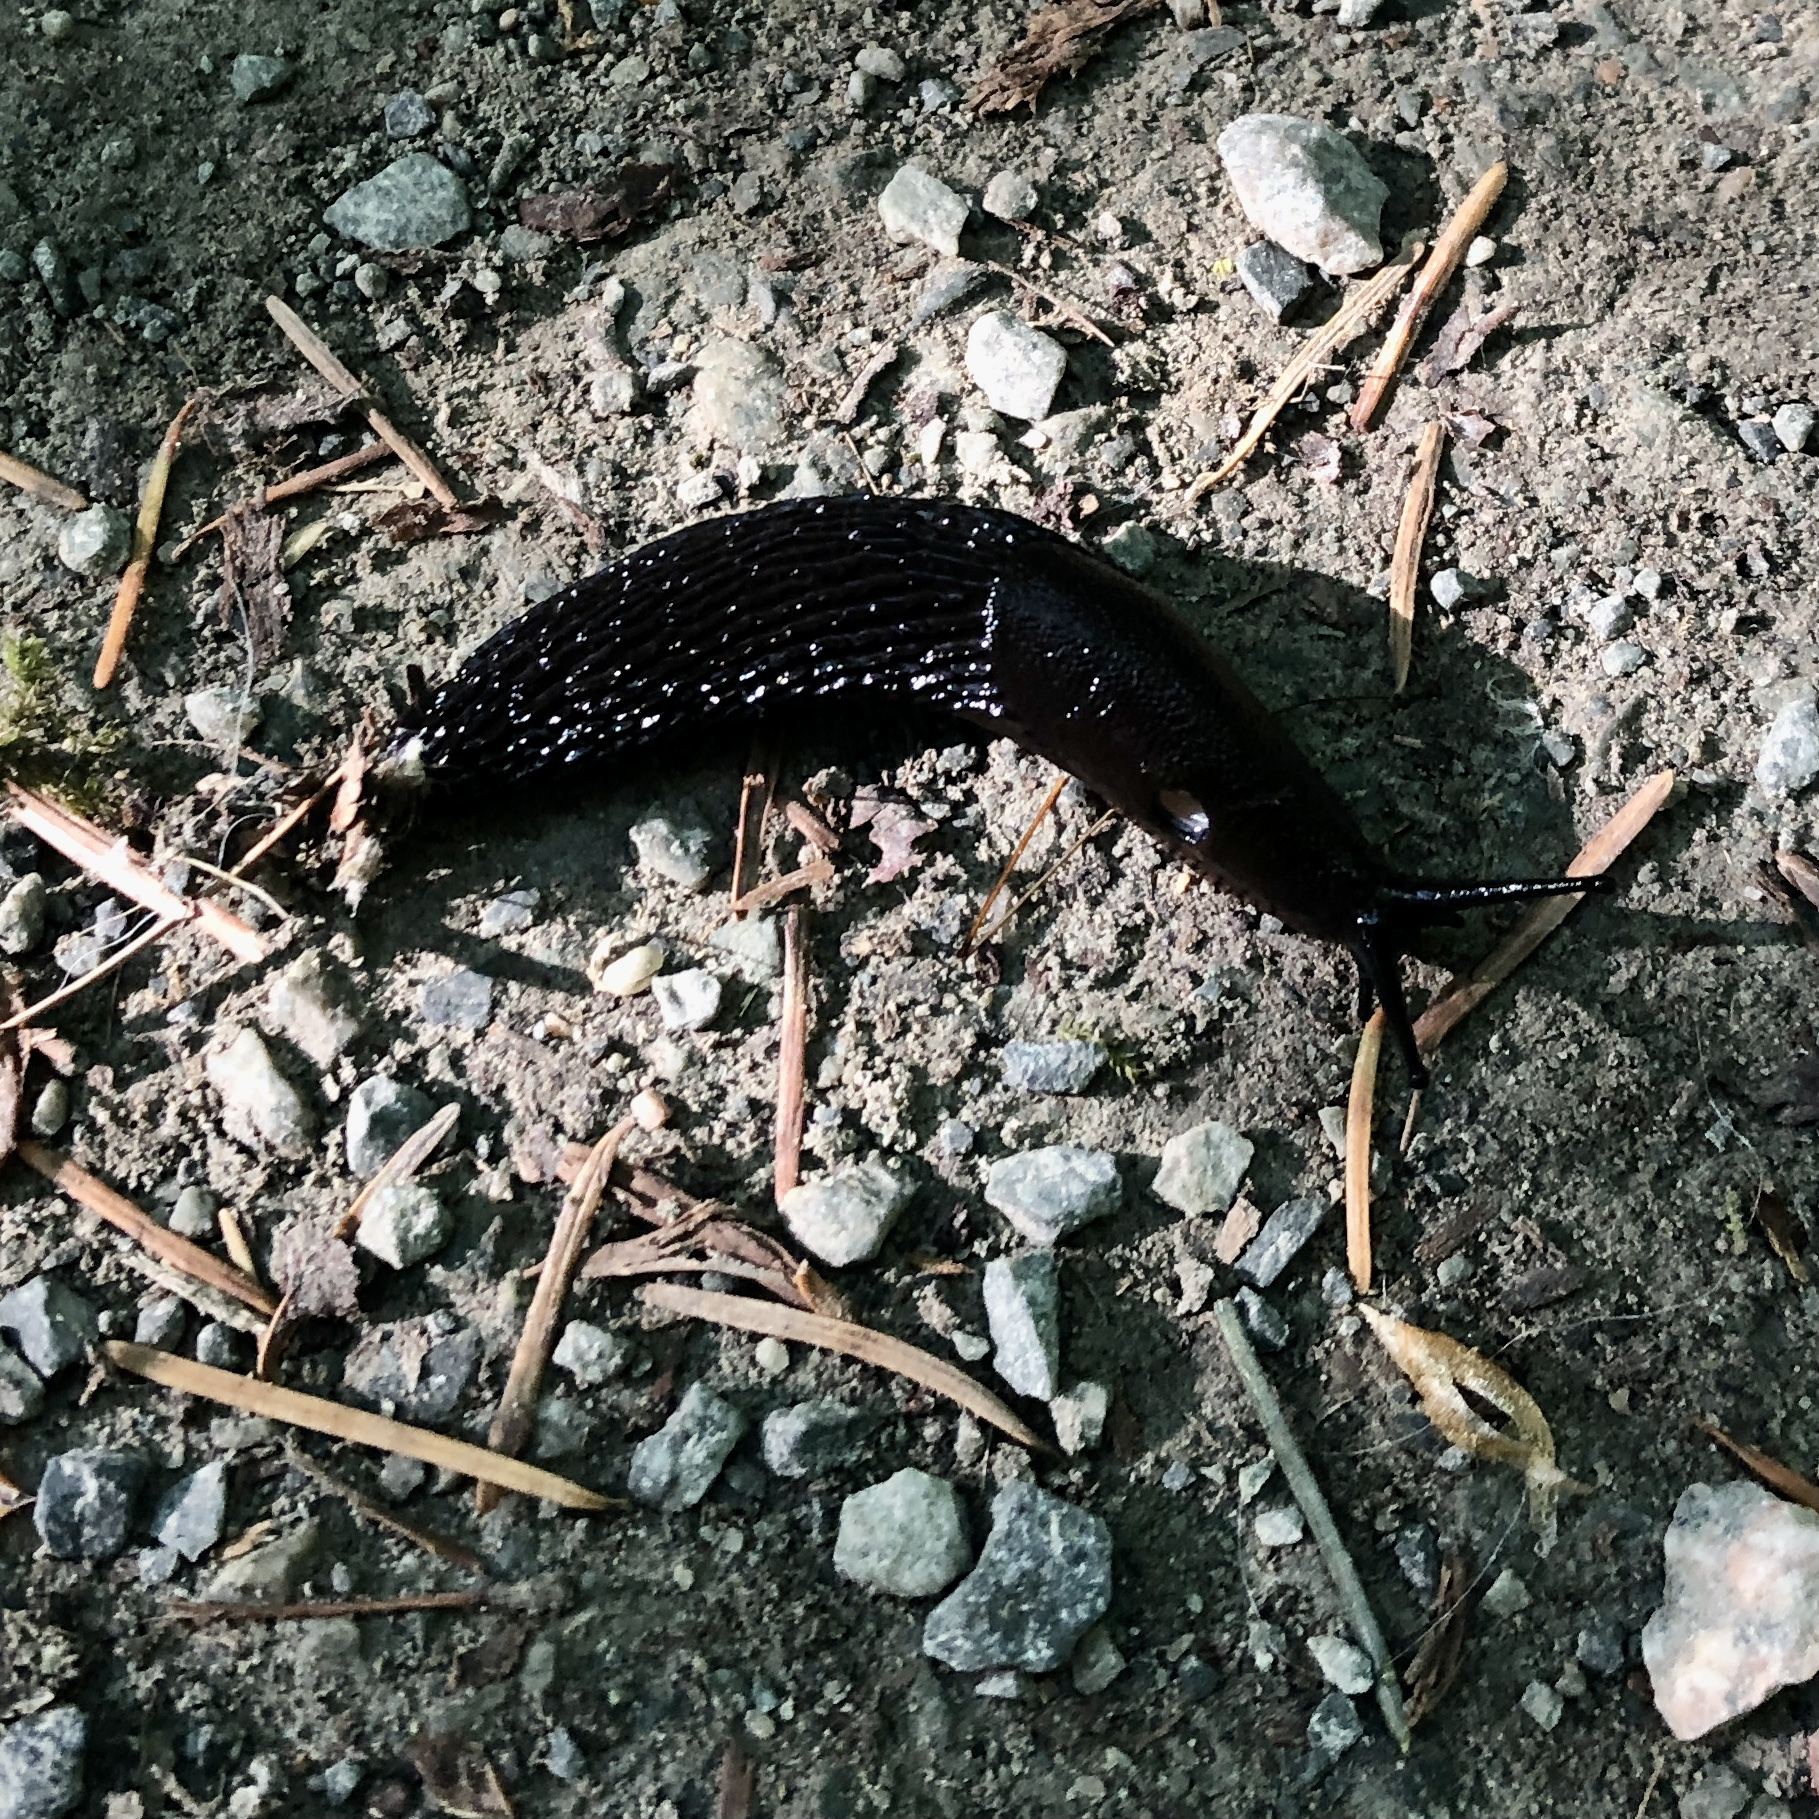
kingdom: Animalia
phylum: Mollusca
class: Gastropoda
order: Stylommatophora
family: Arionidae
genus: Arion
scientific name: Arion
